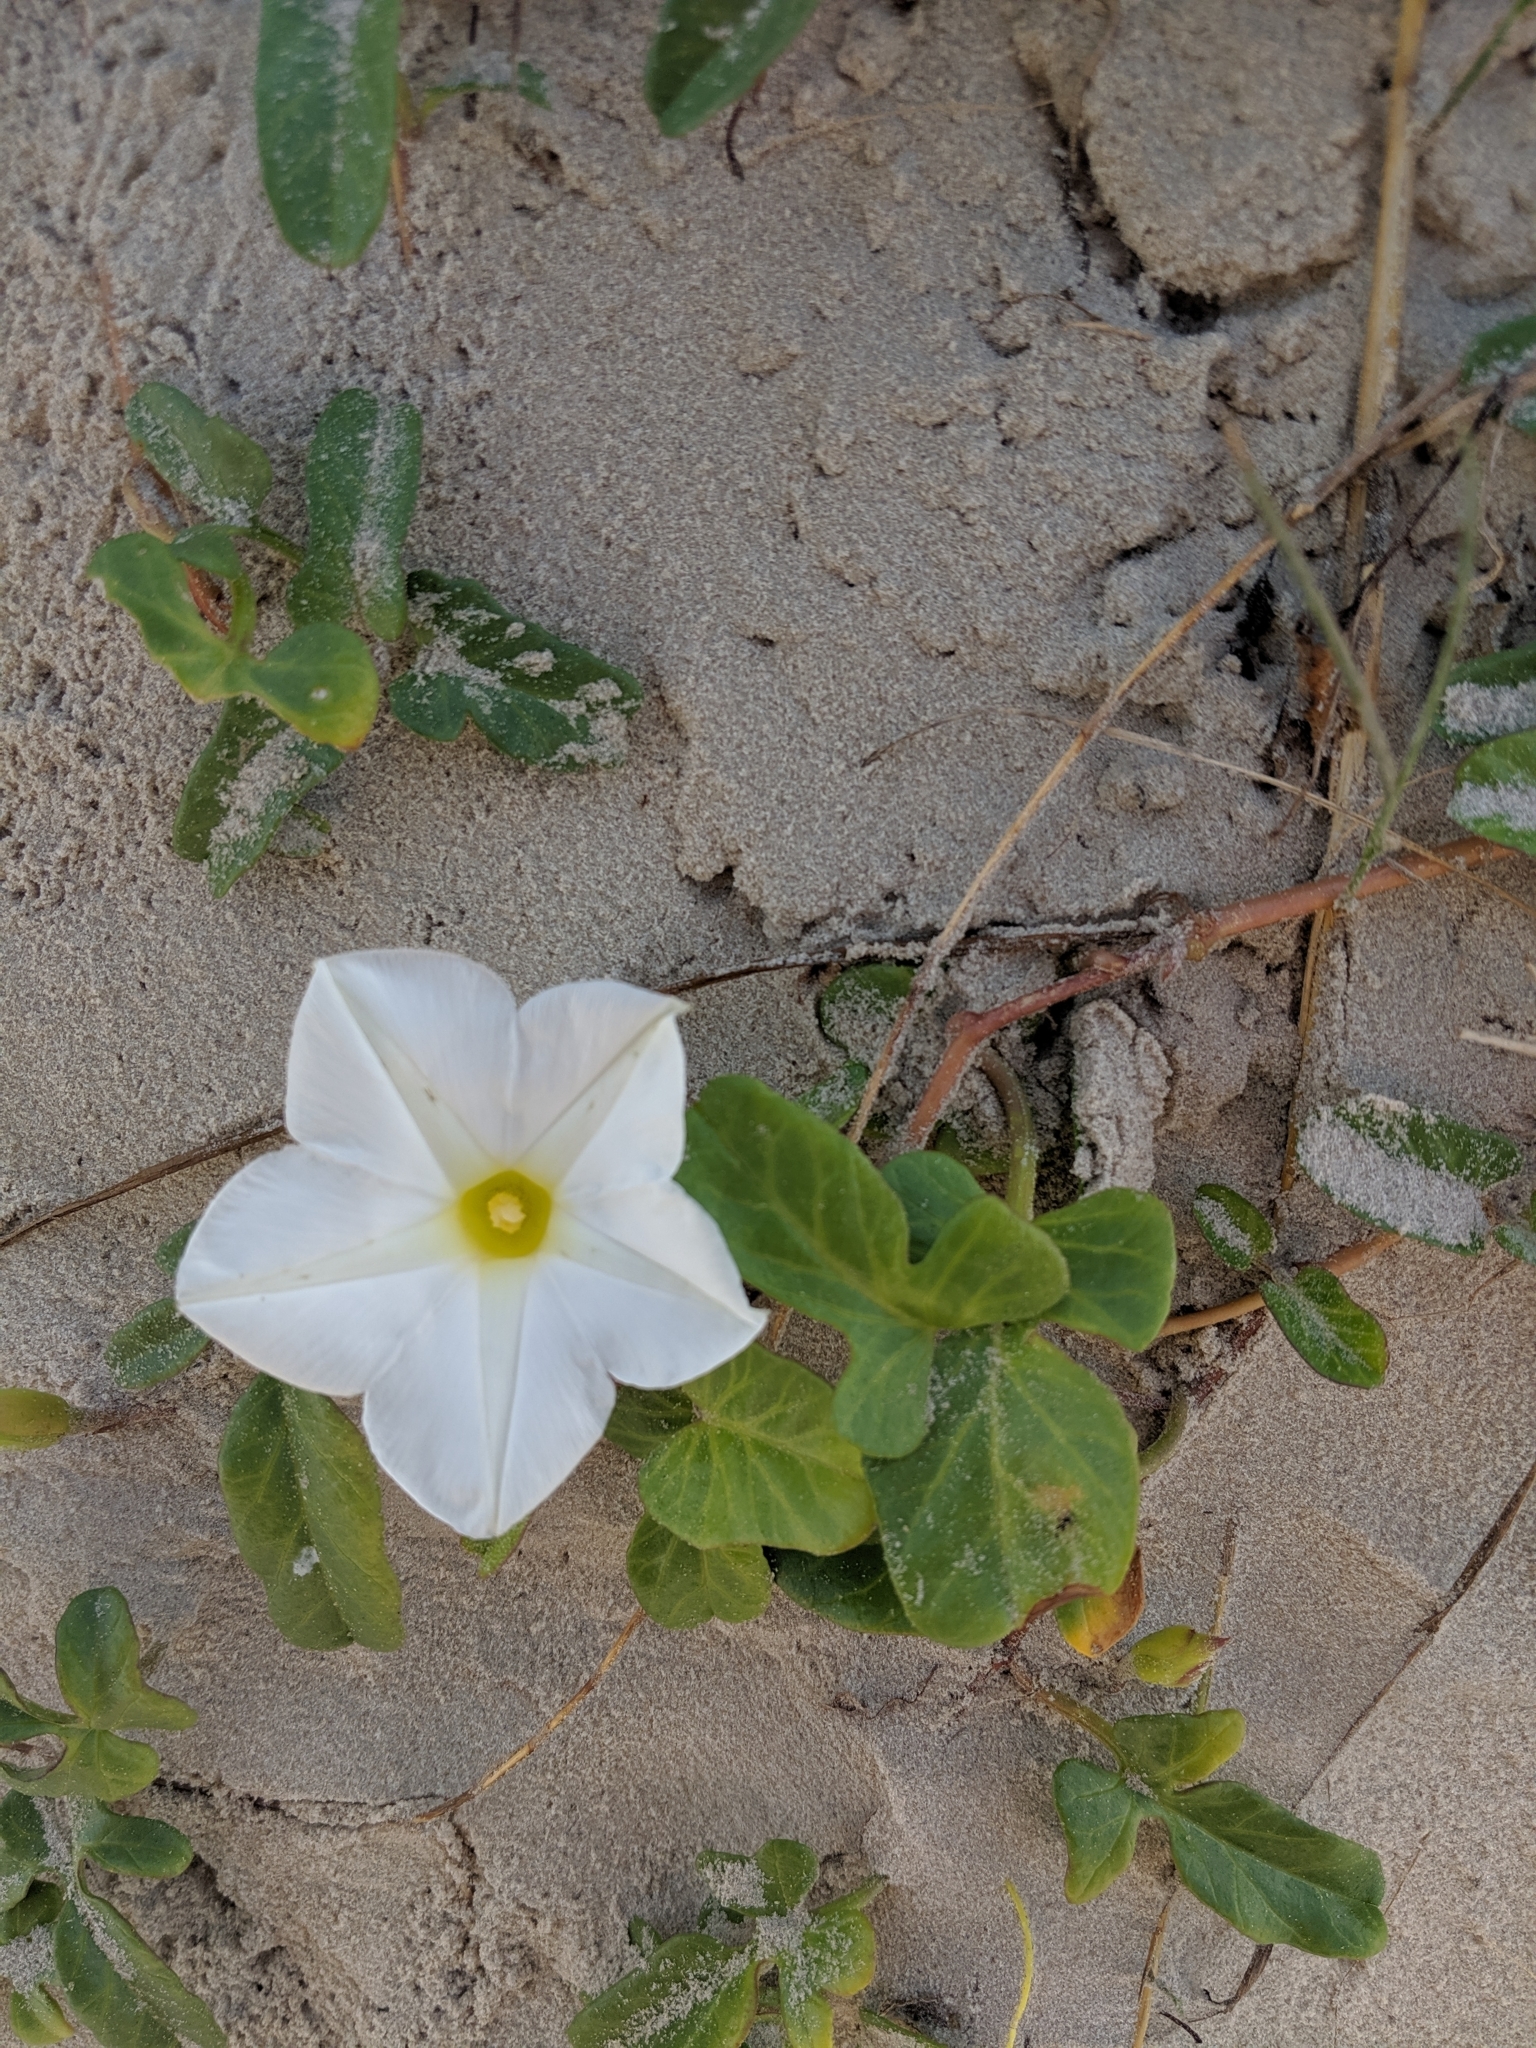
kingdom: Plantae
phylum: Tracheophyta
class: Magnoliopsida
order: Solanales
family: Convolvulaceae
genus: Ipomoea
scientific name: Ipomoea imperati
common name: Fiddle-leaf morning-glory
